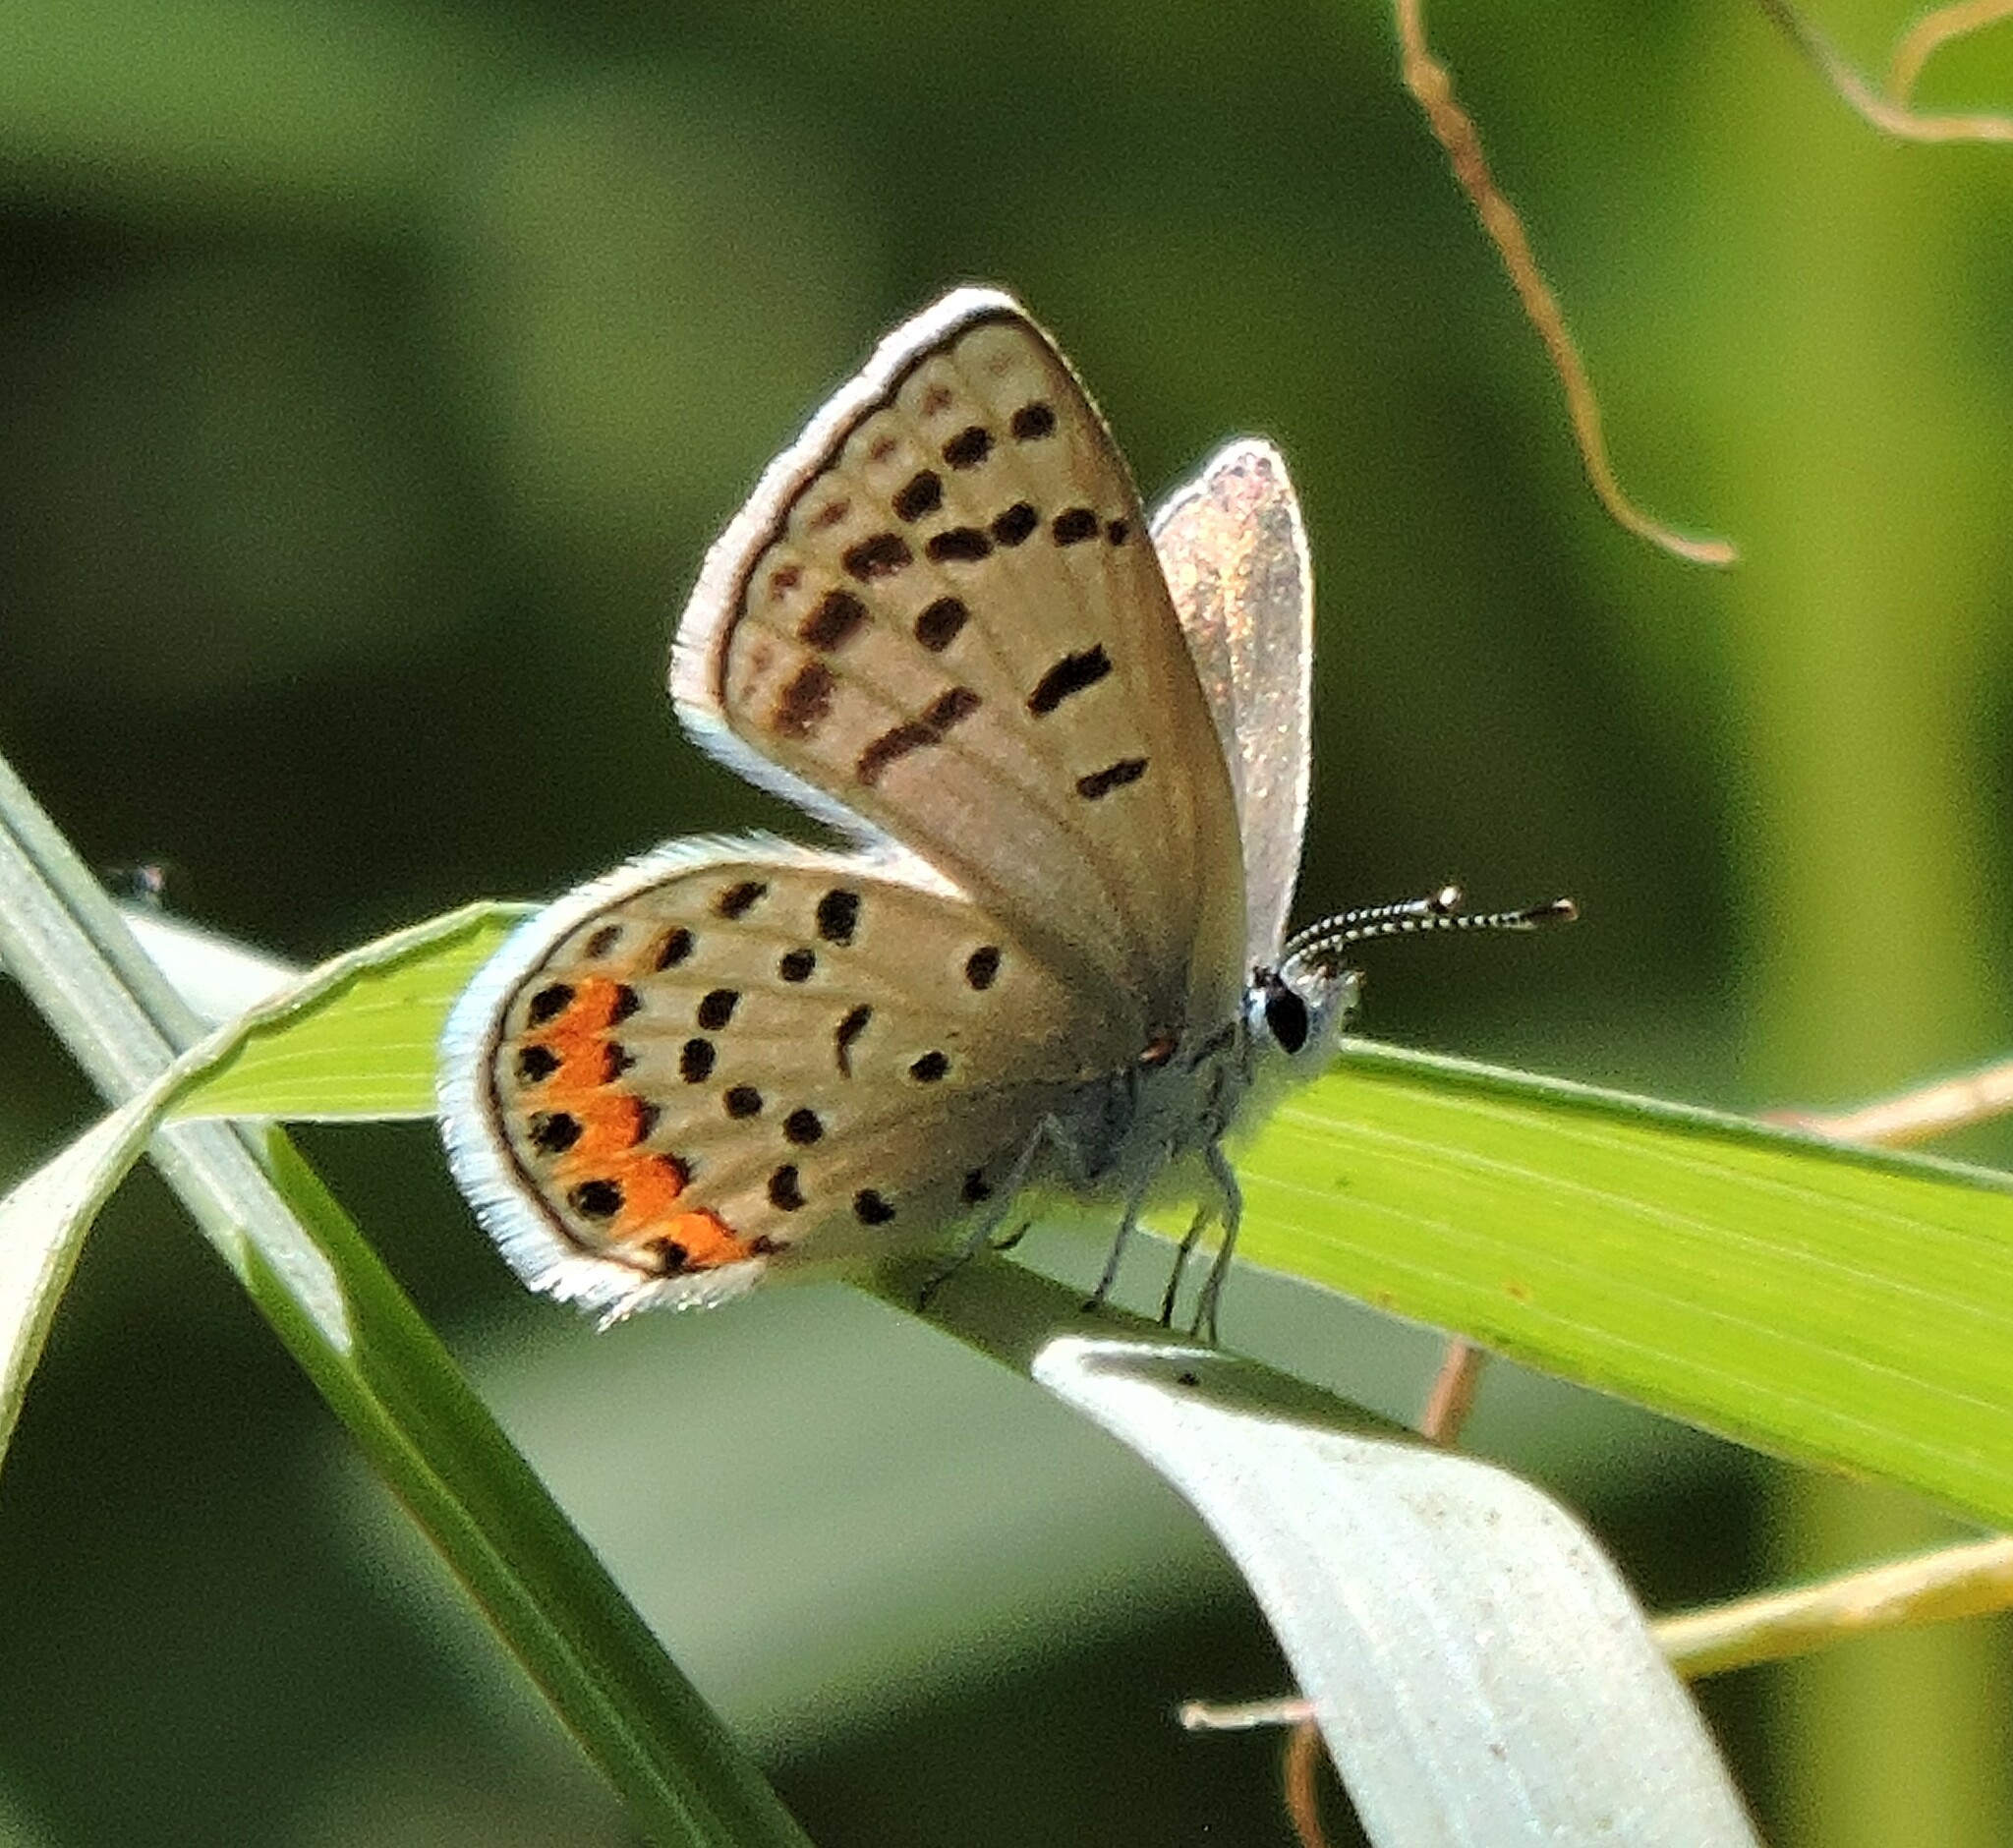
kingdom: Animalia
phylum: Arthropoda
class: Insecta
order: Lepidoptera
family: Lycaenidae
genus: Icaricia
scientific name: Icaricia acmon
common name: Acmon blue
